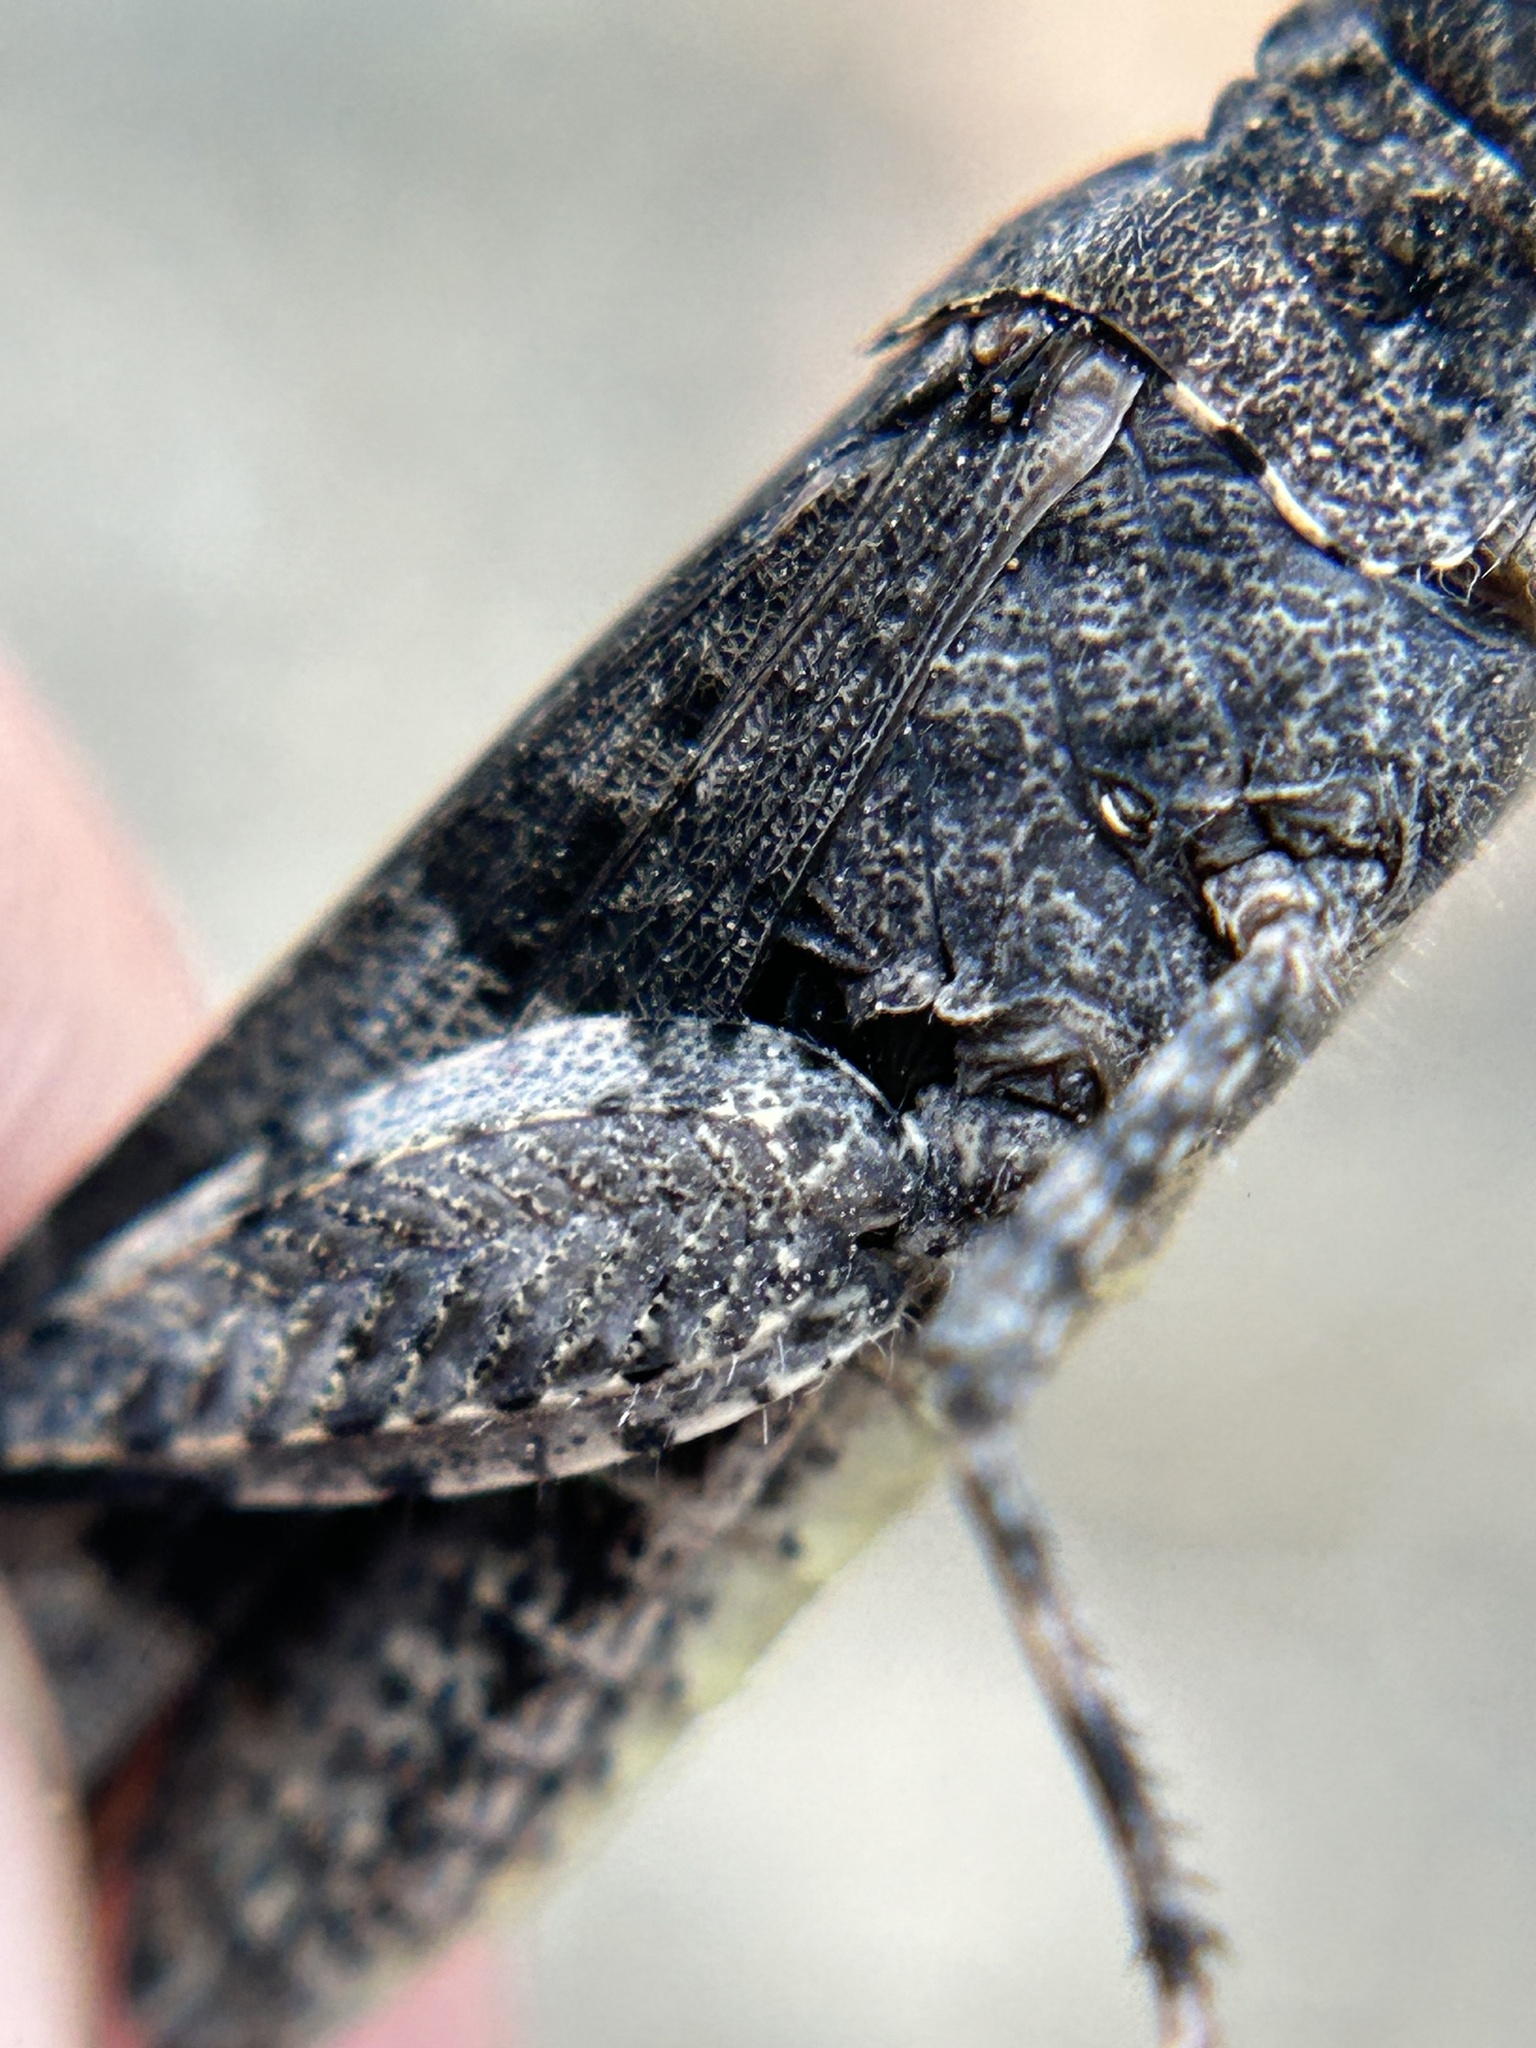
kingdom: Animalia
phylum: Arthropoda
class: Insecta
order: Orthoptera
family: Acrididae
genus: Trimerotropis
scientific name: Trimerotropis fontana
